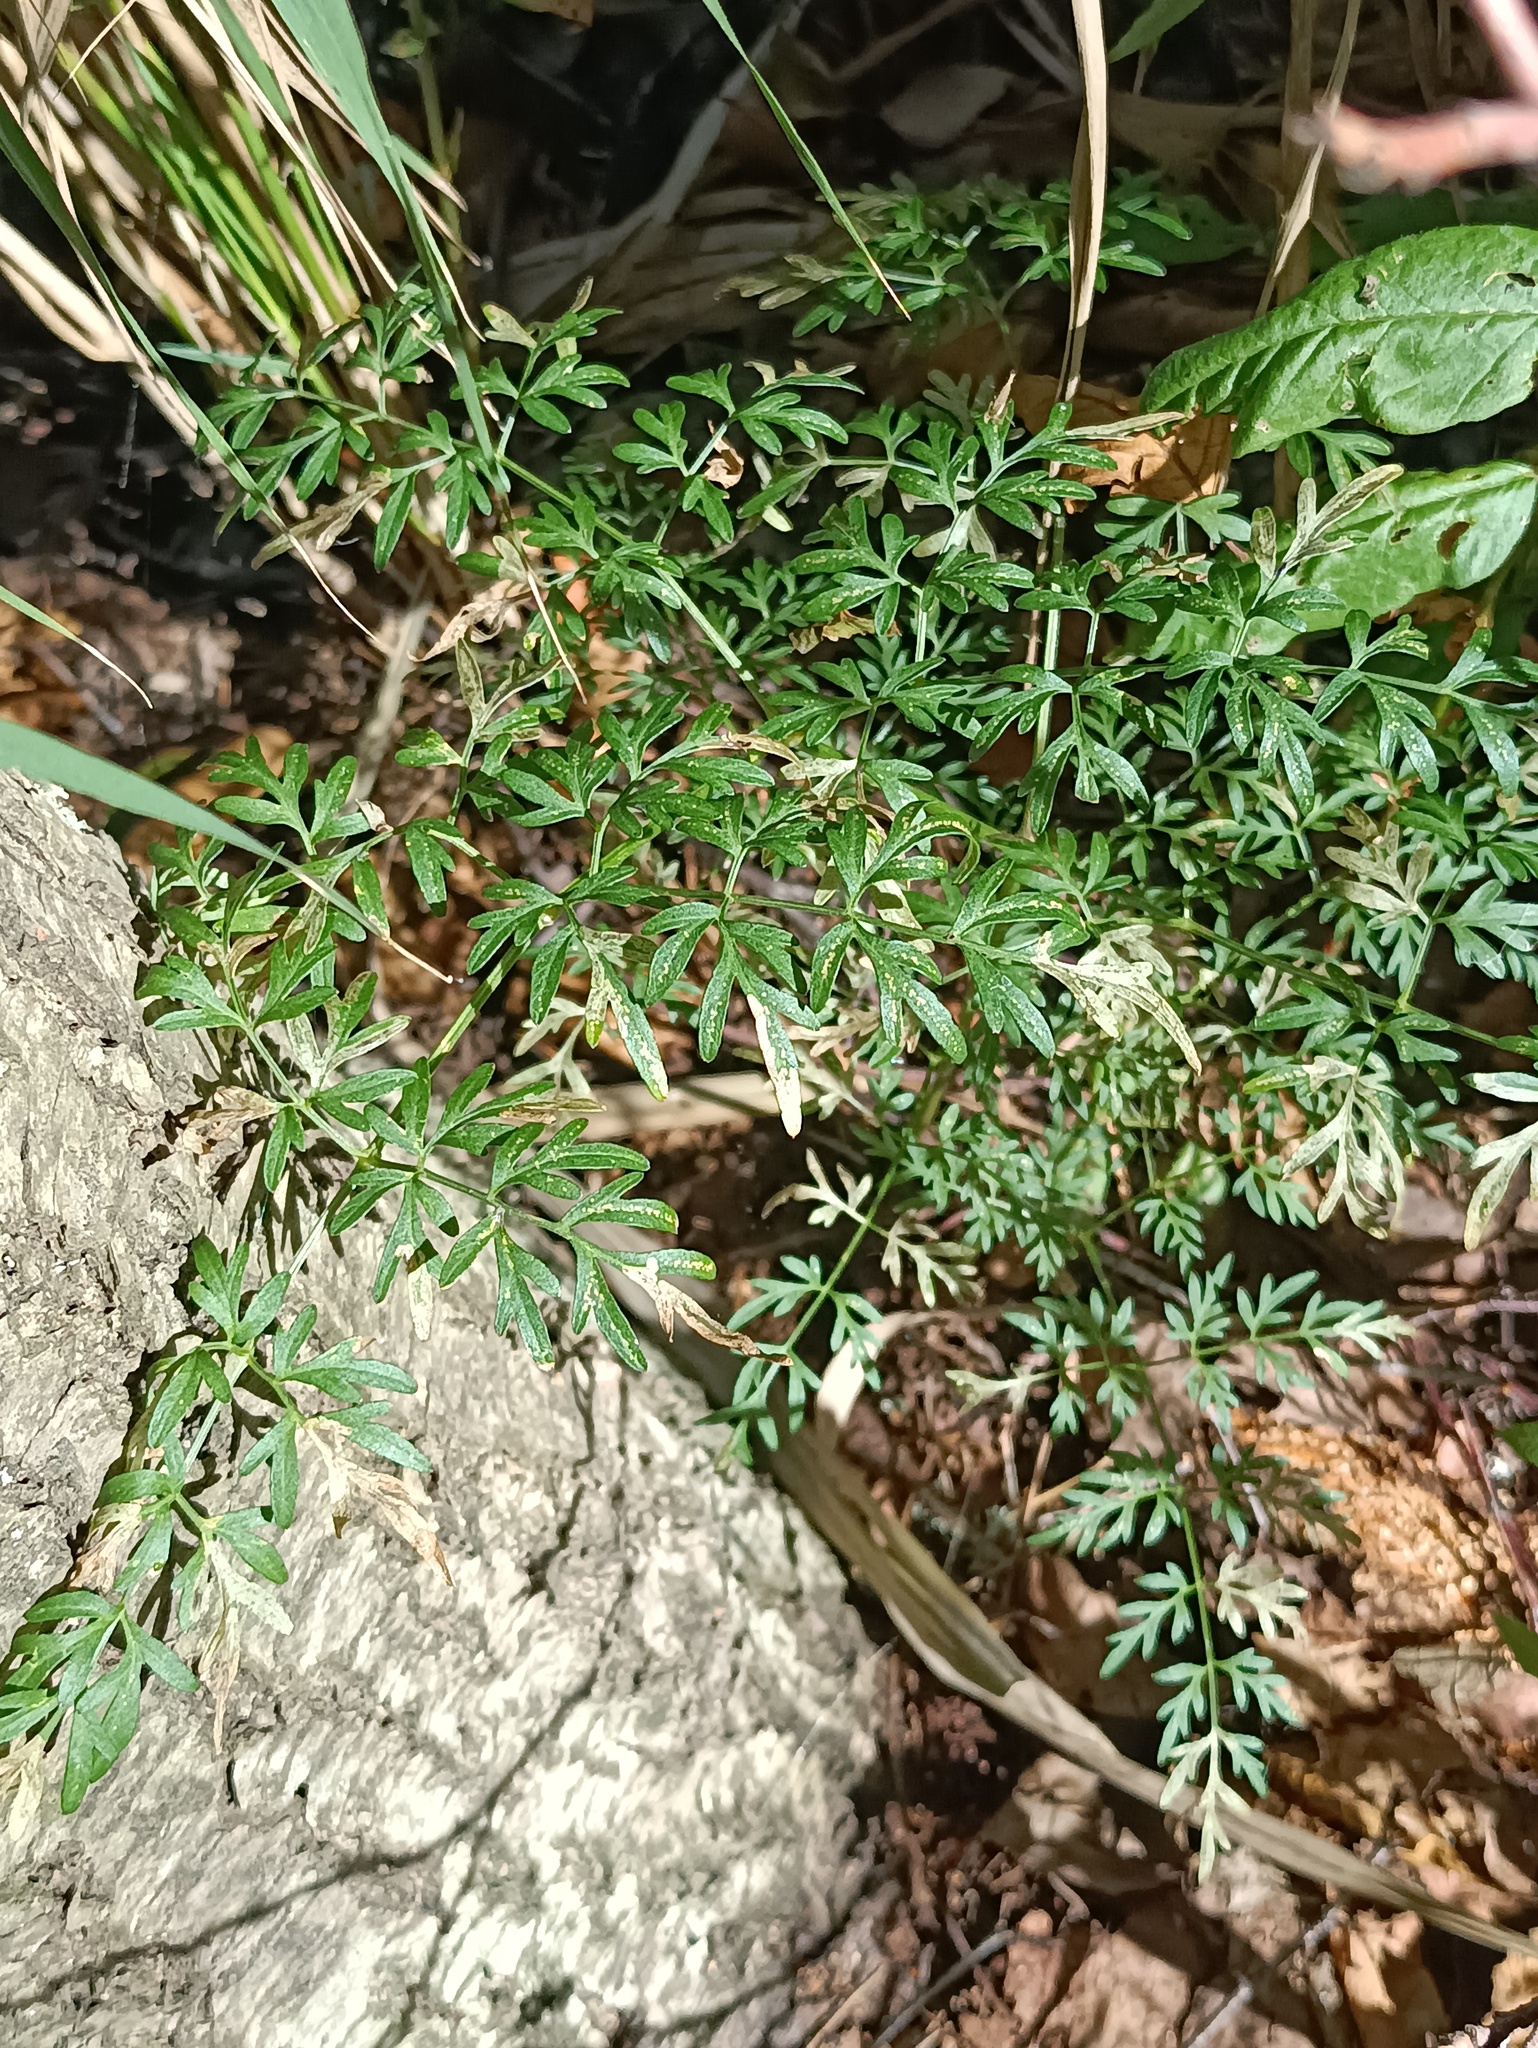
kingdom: Plantae
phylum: Tracheophyta
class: Magnoliopsida
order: Apiales
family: Apiaceae
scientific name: Apiaceae
